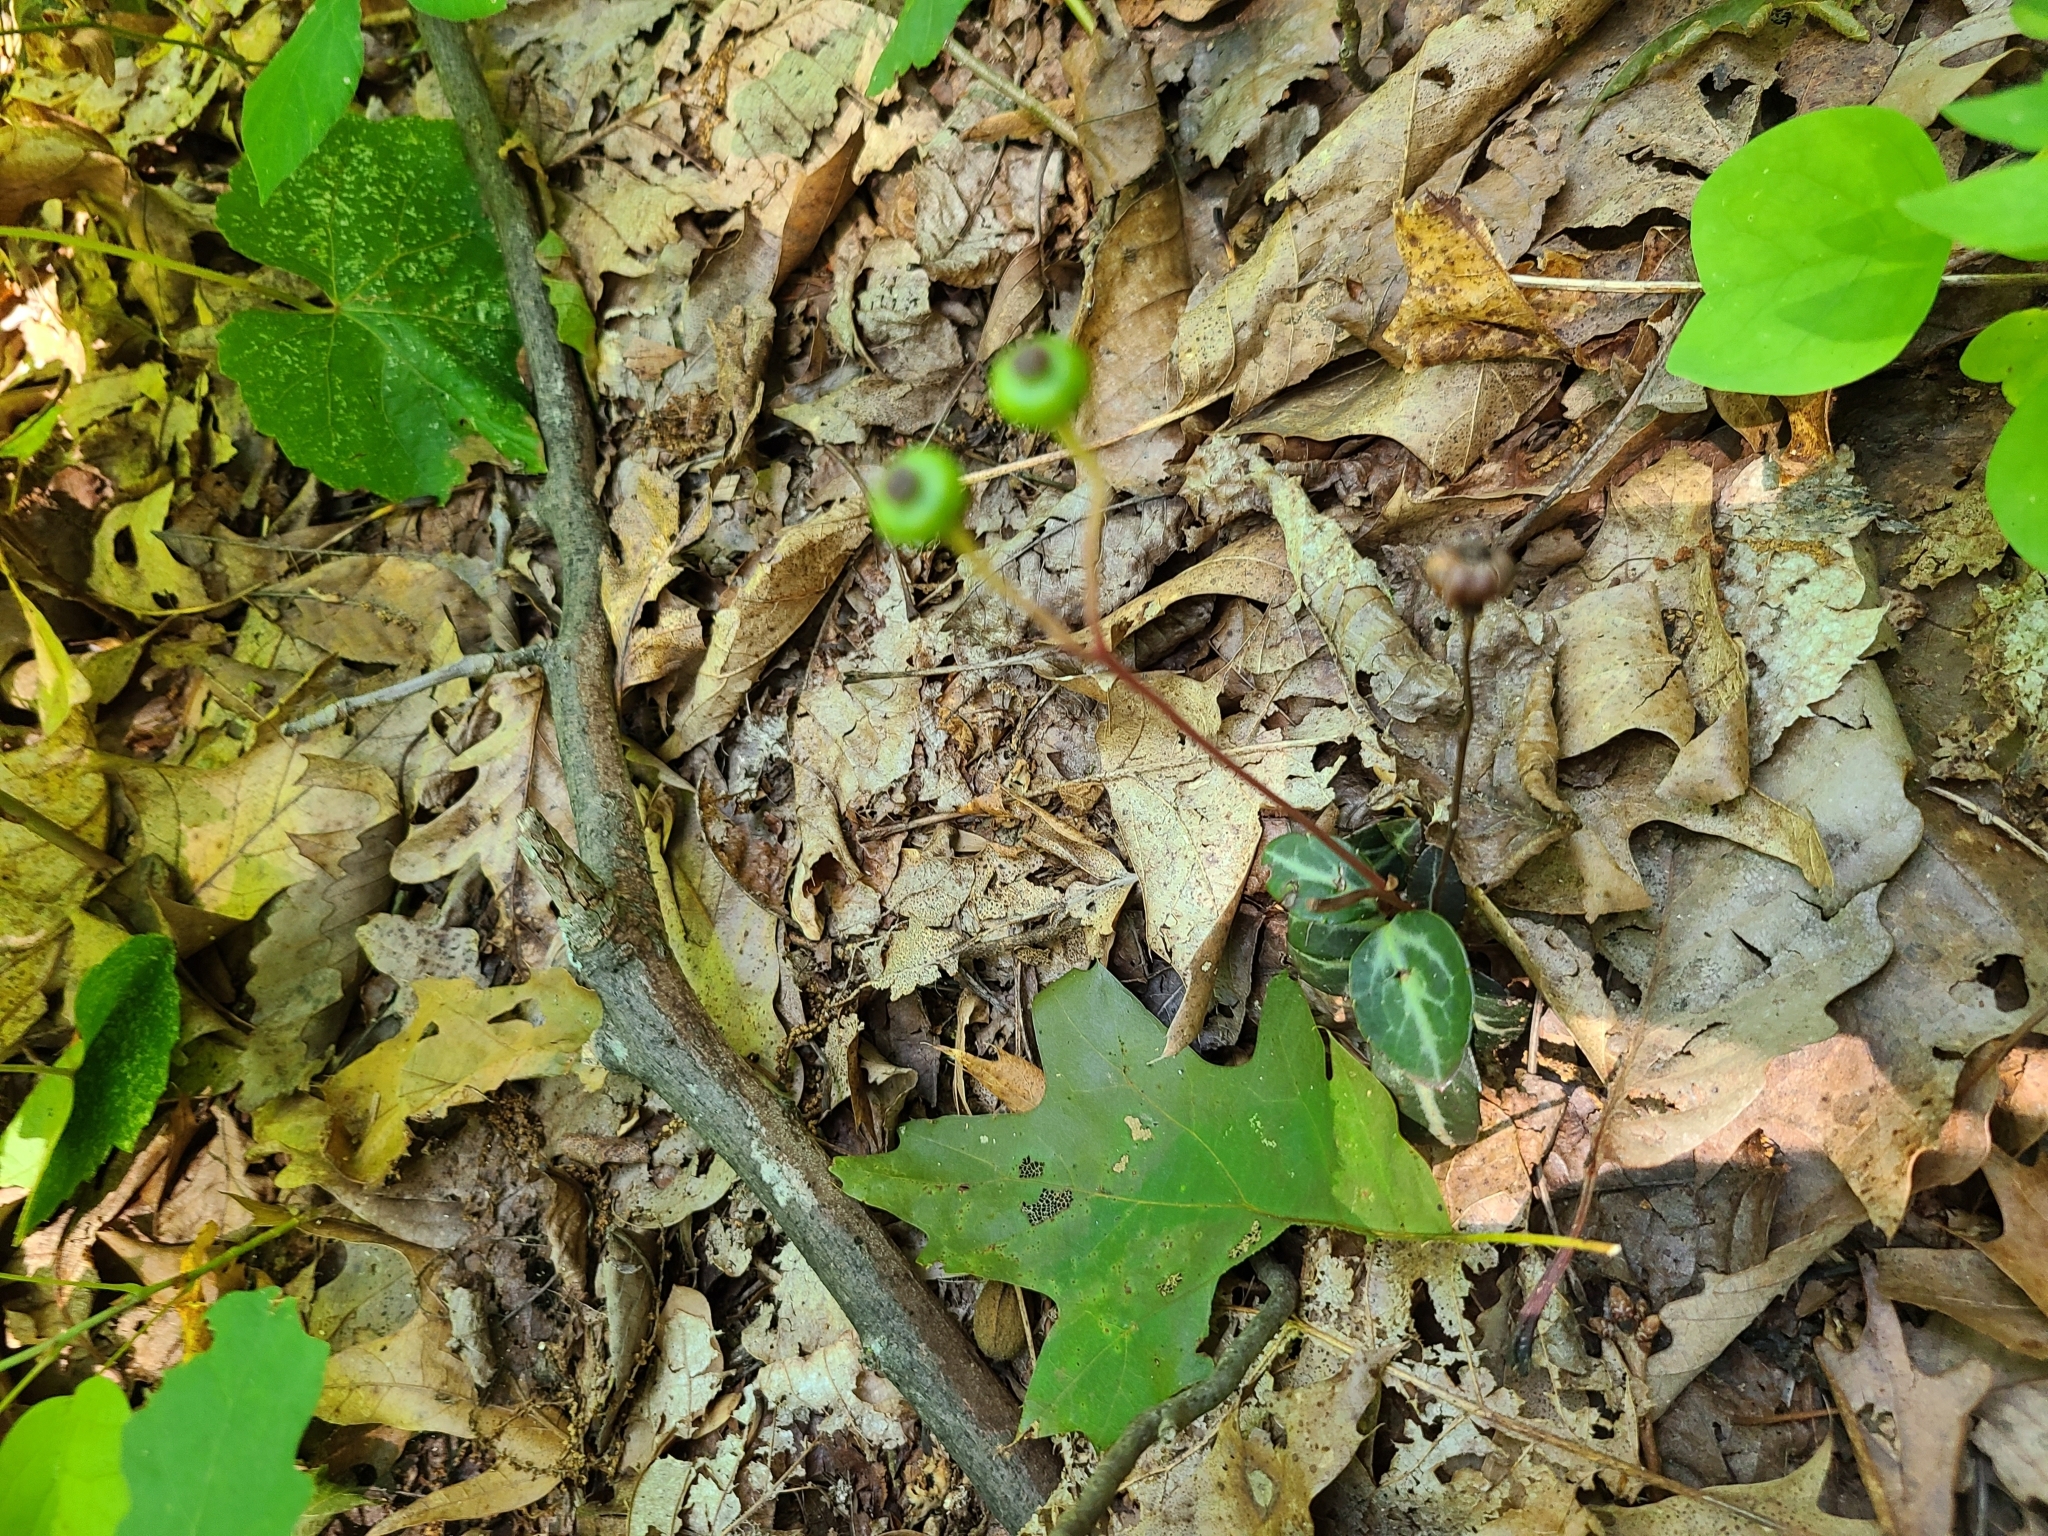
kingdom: Plantae
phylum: Tracheophyta
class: Magnoliopsida
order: Ericales
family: Ericaceae
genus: Chimaphila
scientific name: Chimaphila maculata
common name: Spotted pipsissewa
